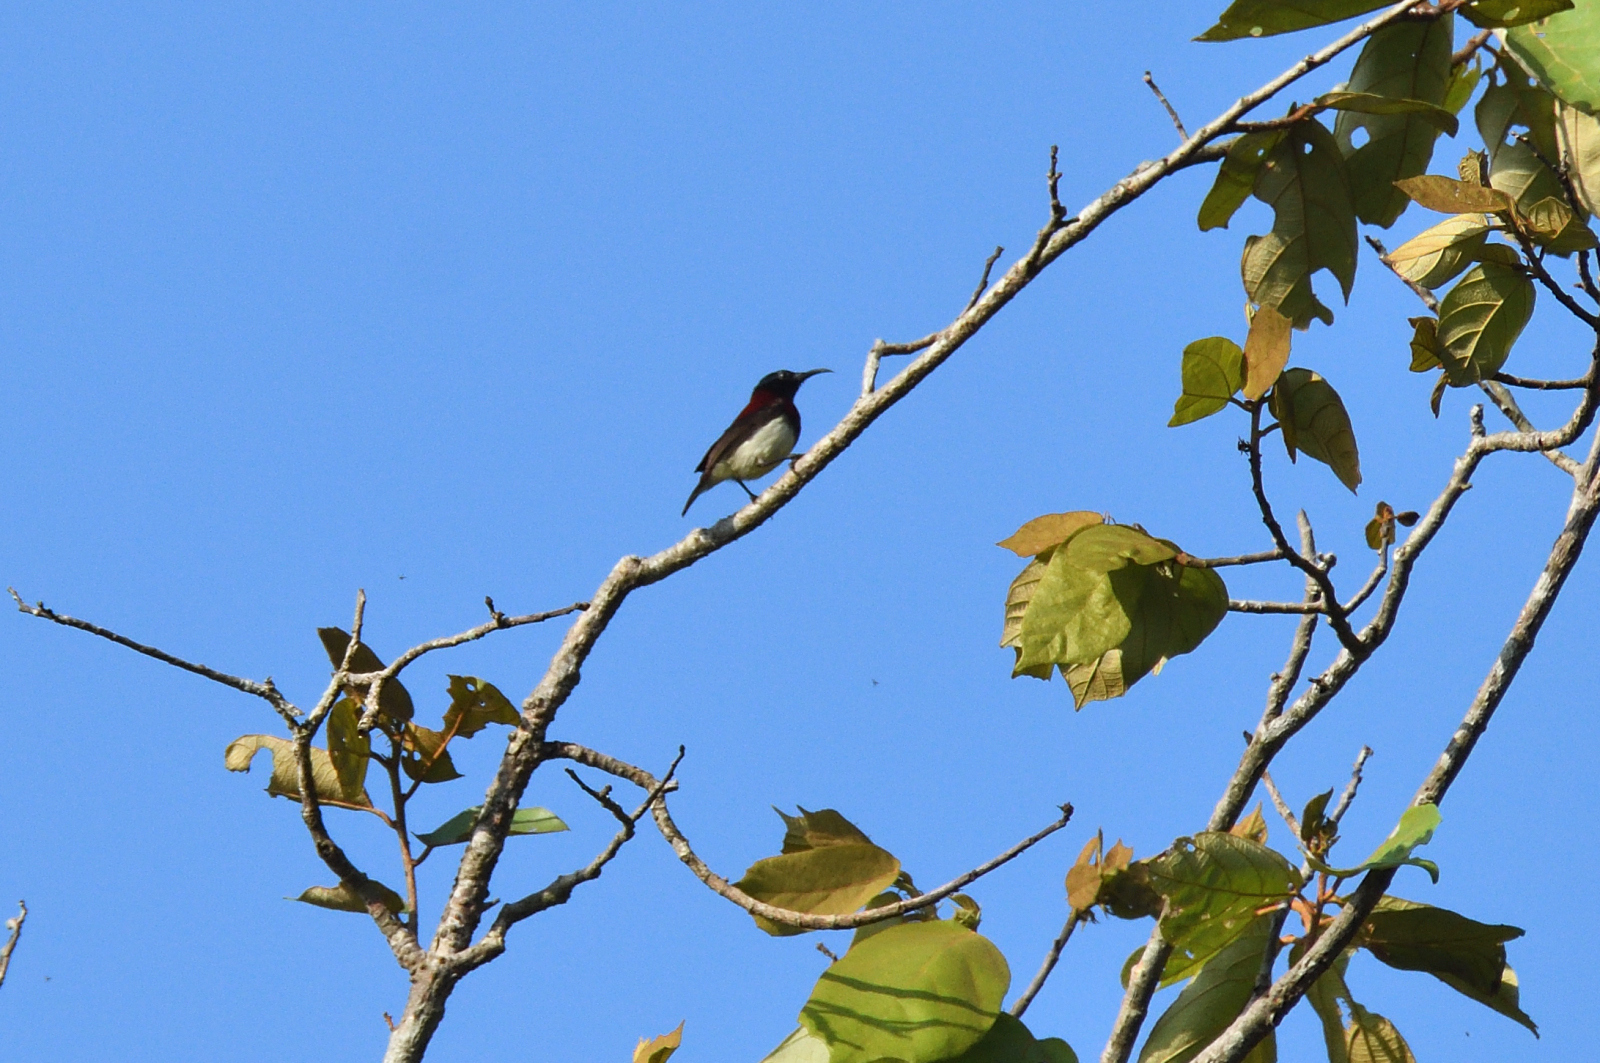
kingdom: Animalia
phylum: Chordata
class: Aves
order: Passeriformes
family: Nectariniidae
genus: Leptocoma
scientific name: Leptocoma zeylonica
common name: Purple-rumped sunbird
